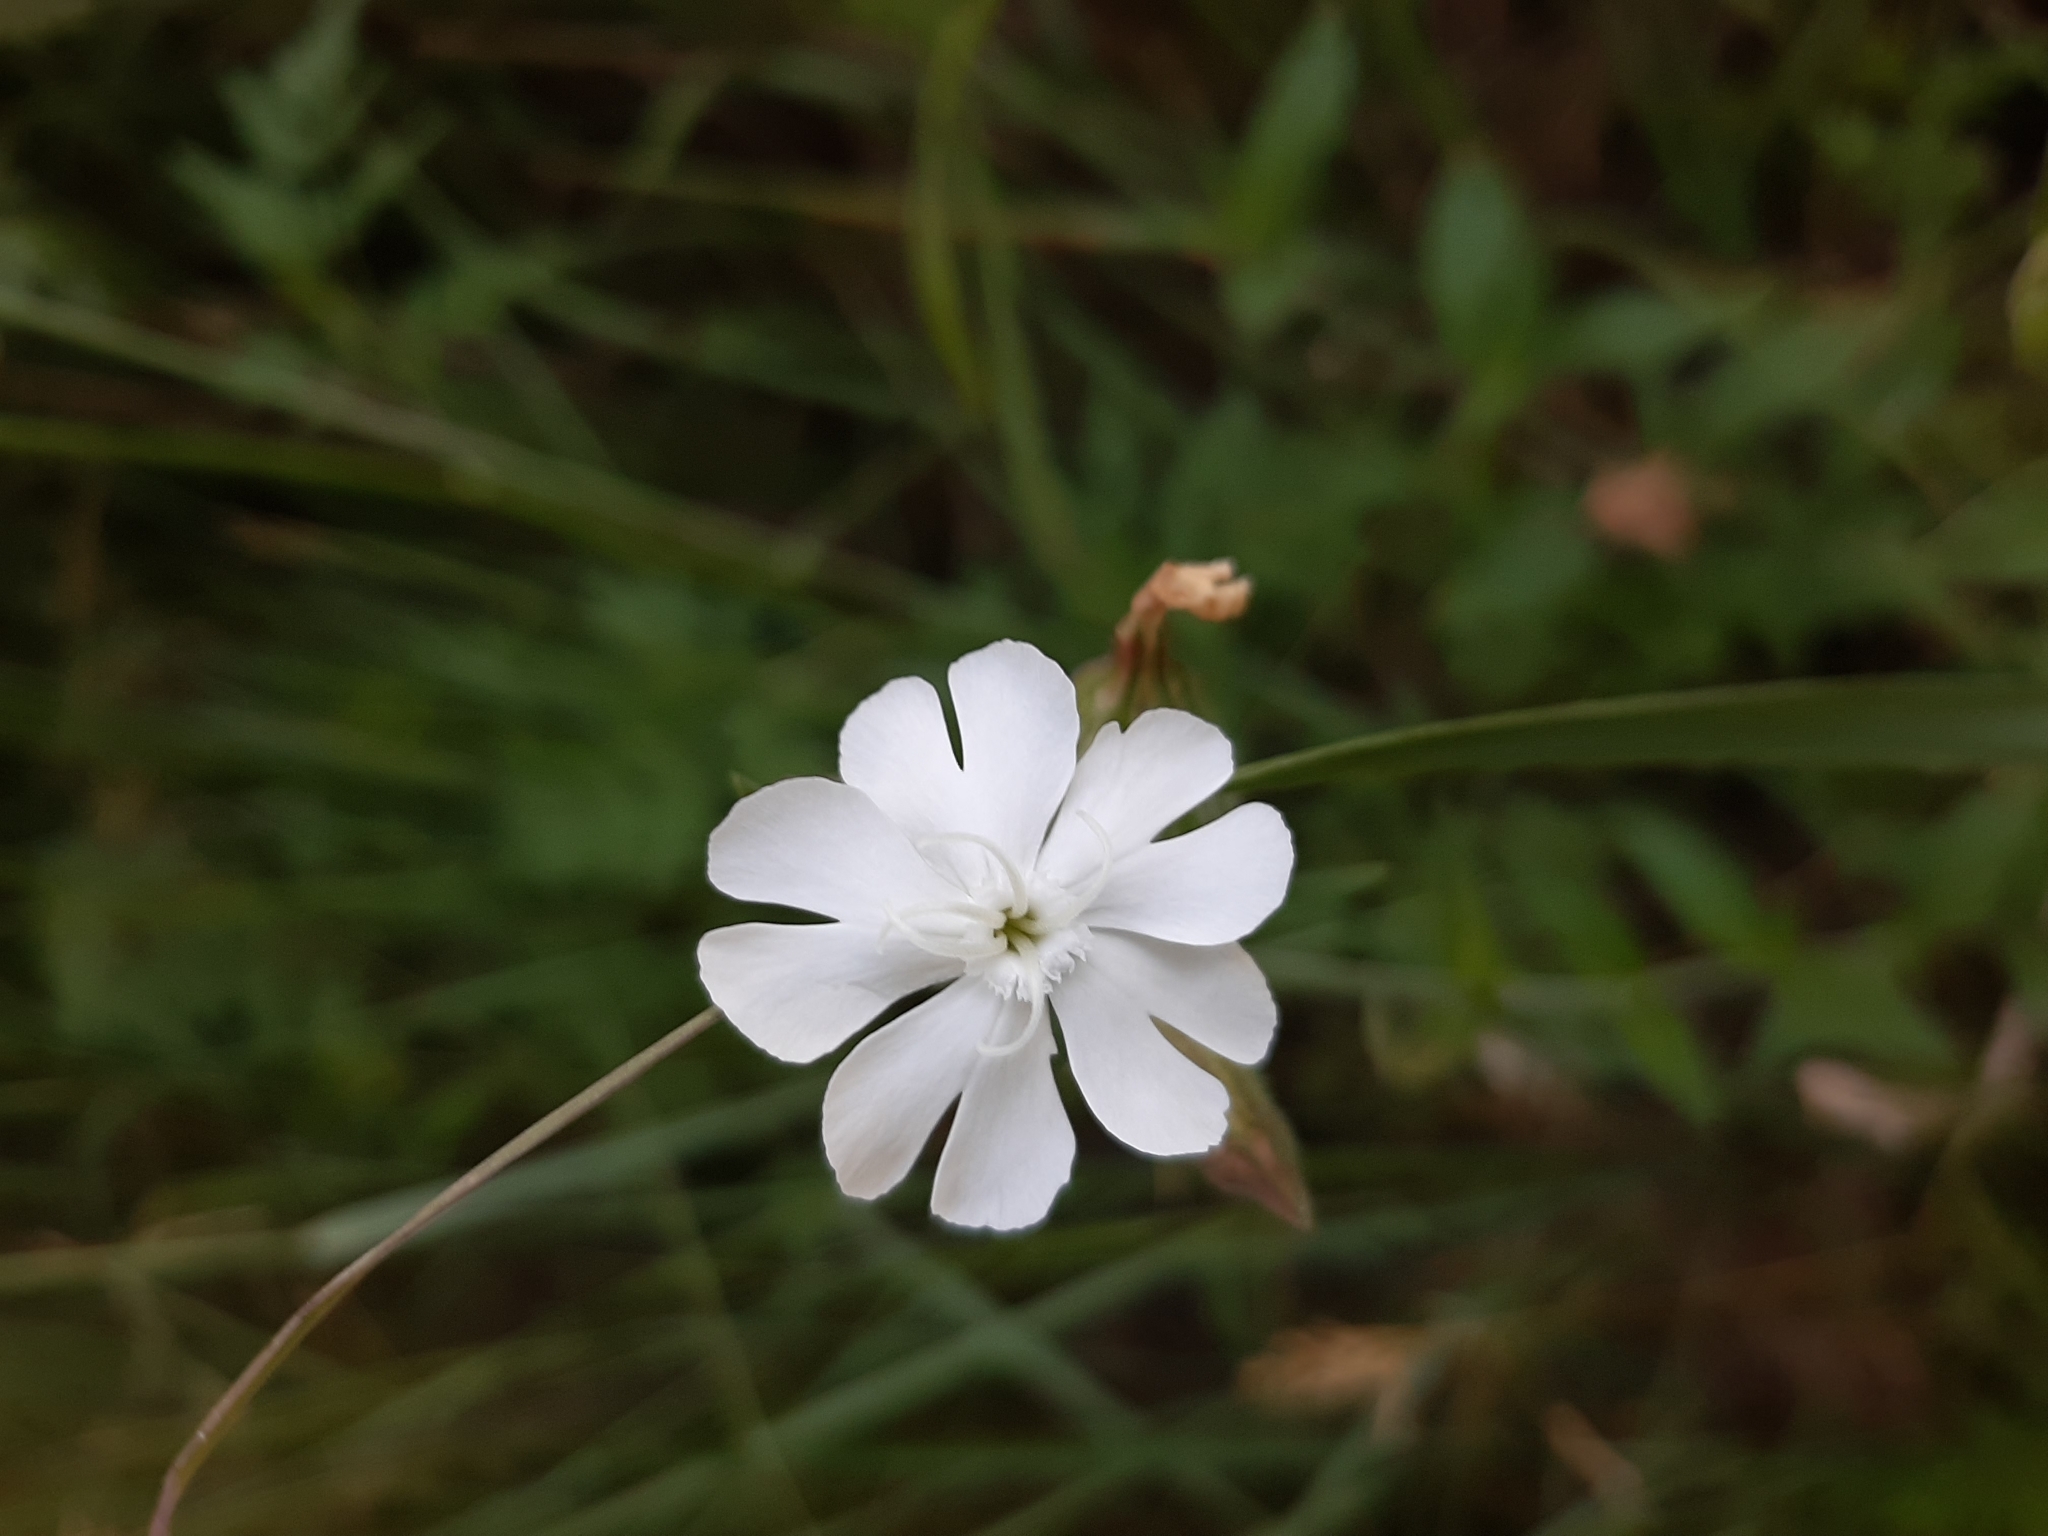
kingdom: Plantae
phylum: Tracheophyta
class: Magnoliopsida
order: Caryophyllales
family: Caryophyllaceae
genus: Silene
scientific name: Silene latifolia
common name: White campion
